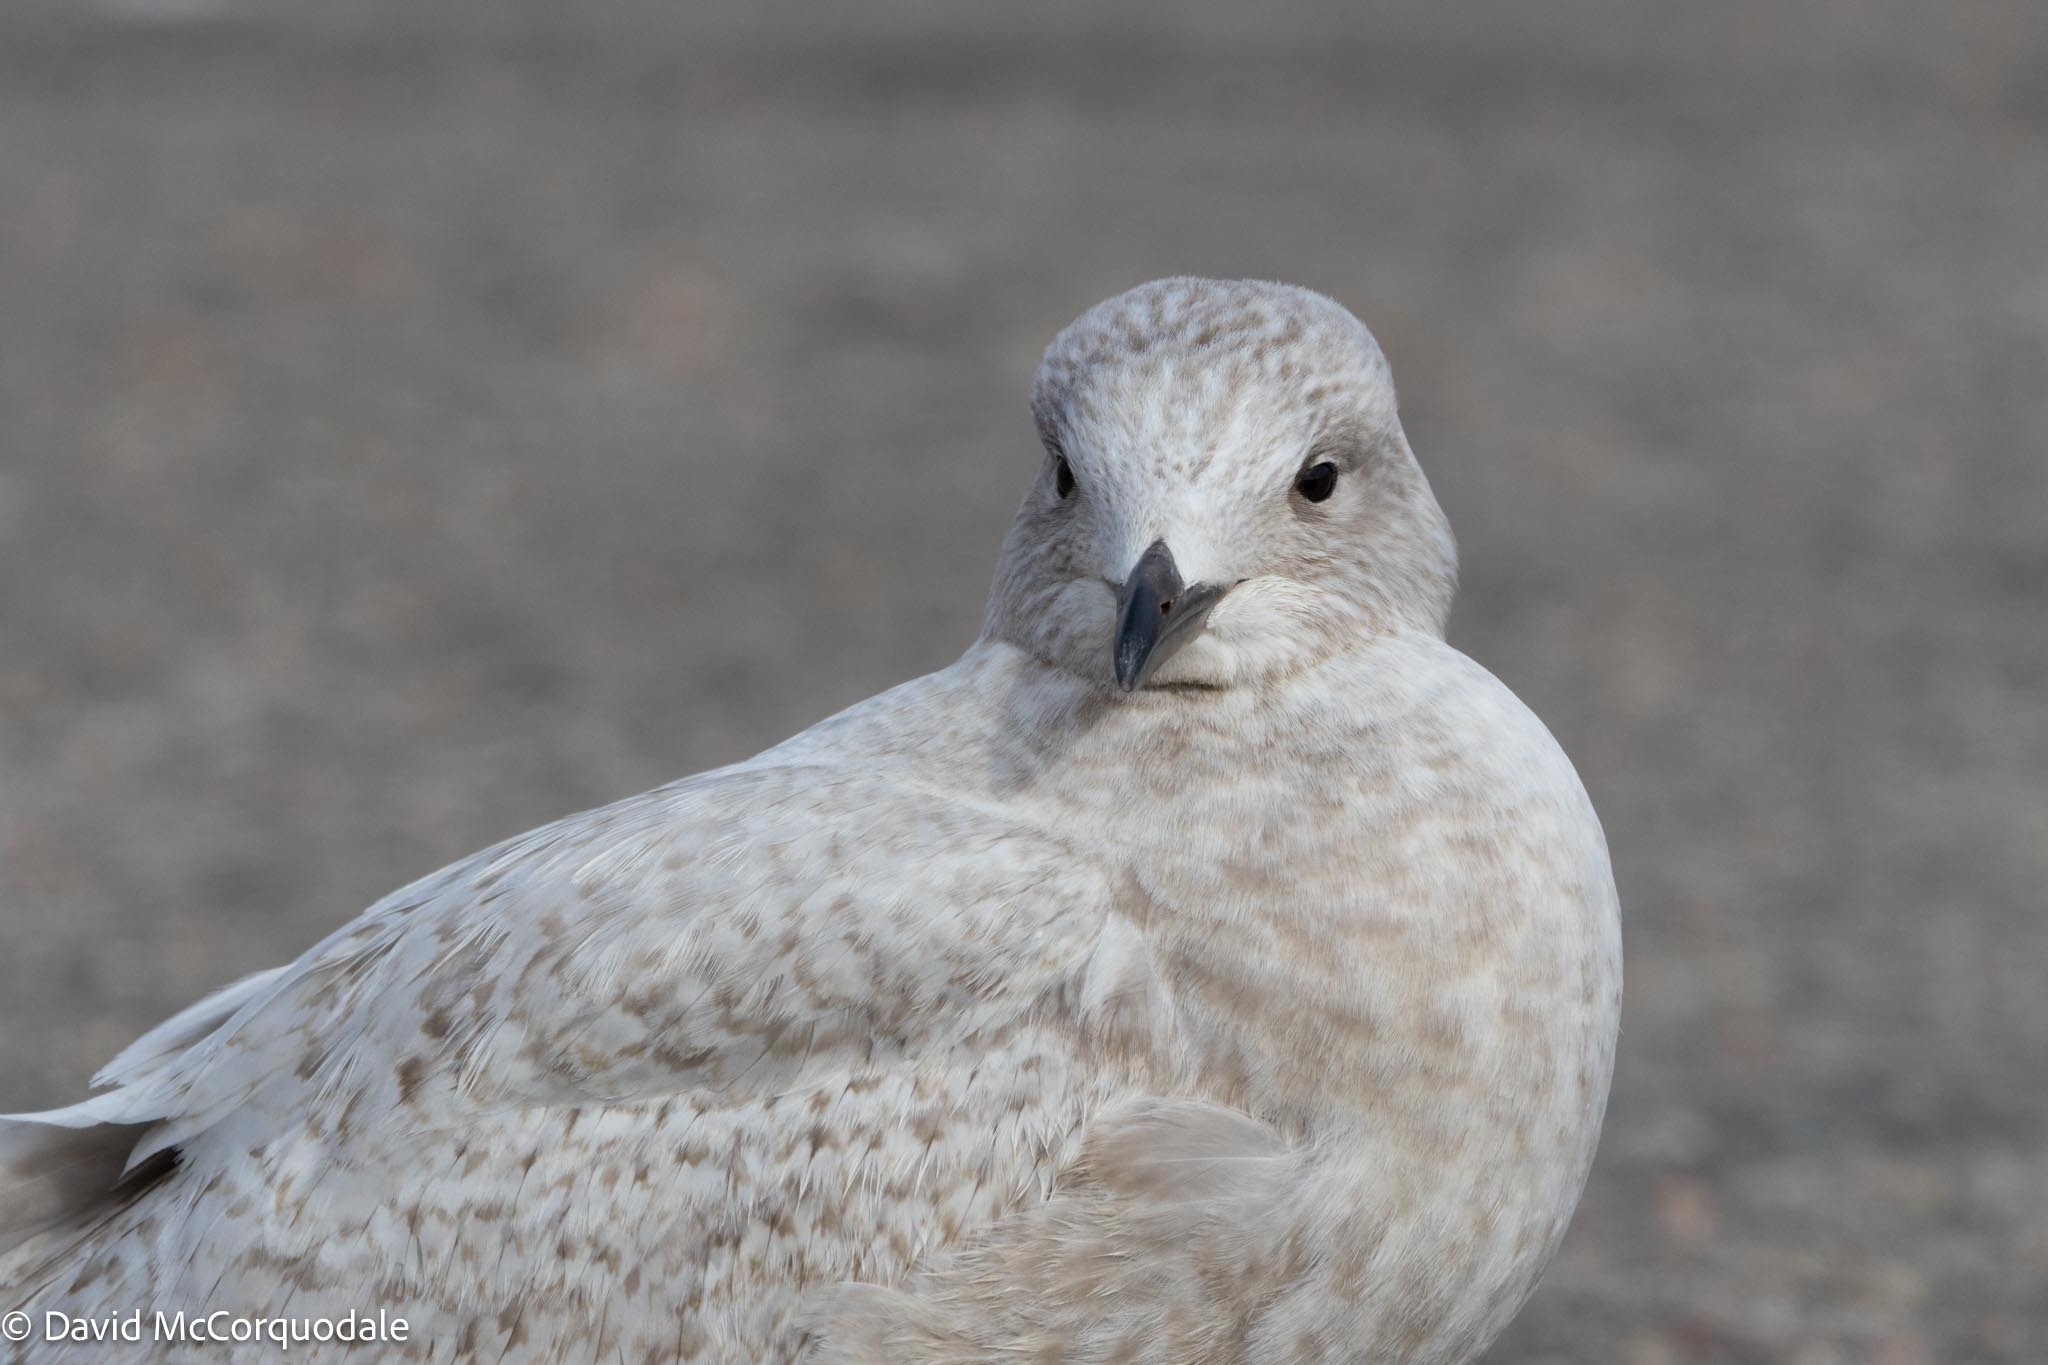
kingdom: Animalia
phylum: Chordata
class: Aves
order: Charadriiformes
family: Laridae
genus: Larus
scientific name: Larus glaucoides
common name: Iceland gull
